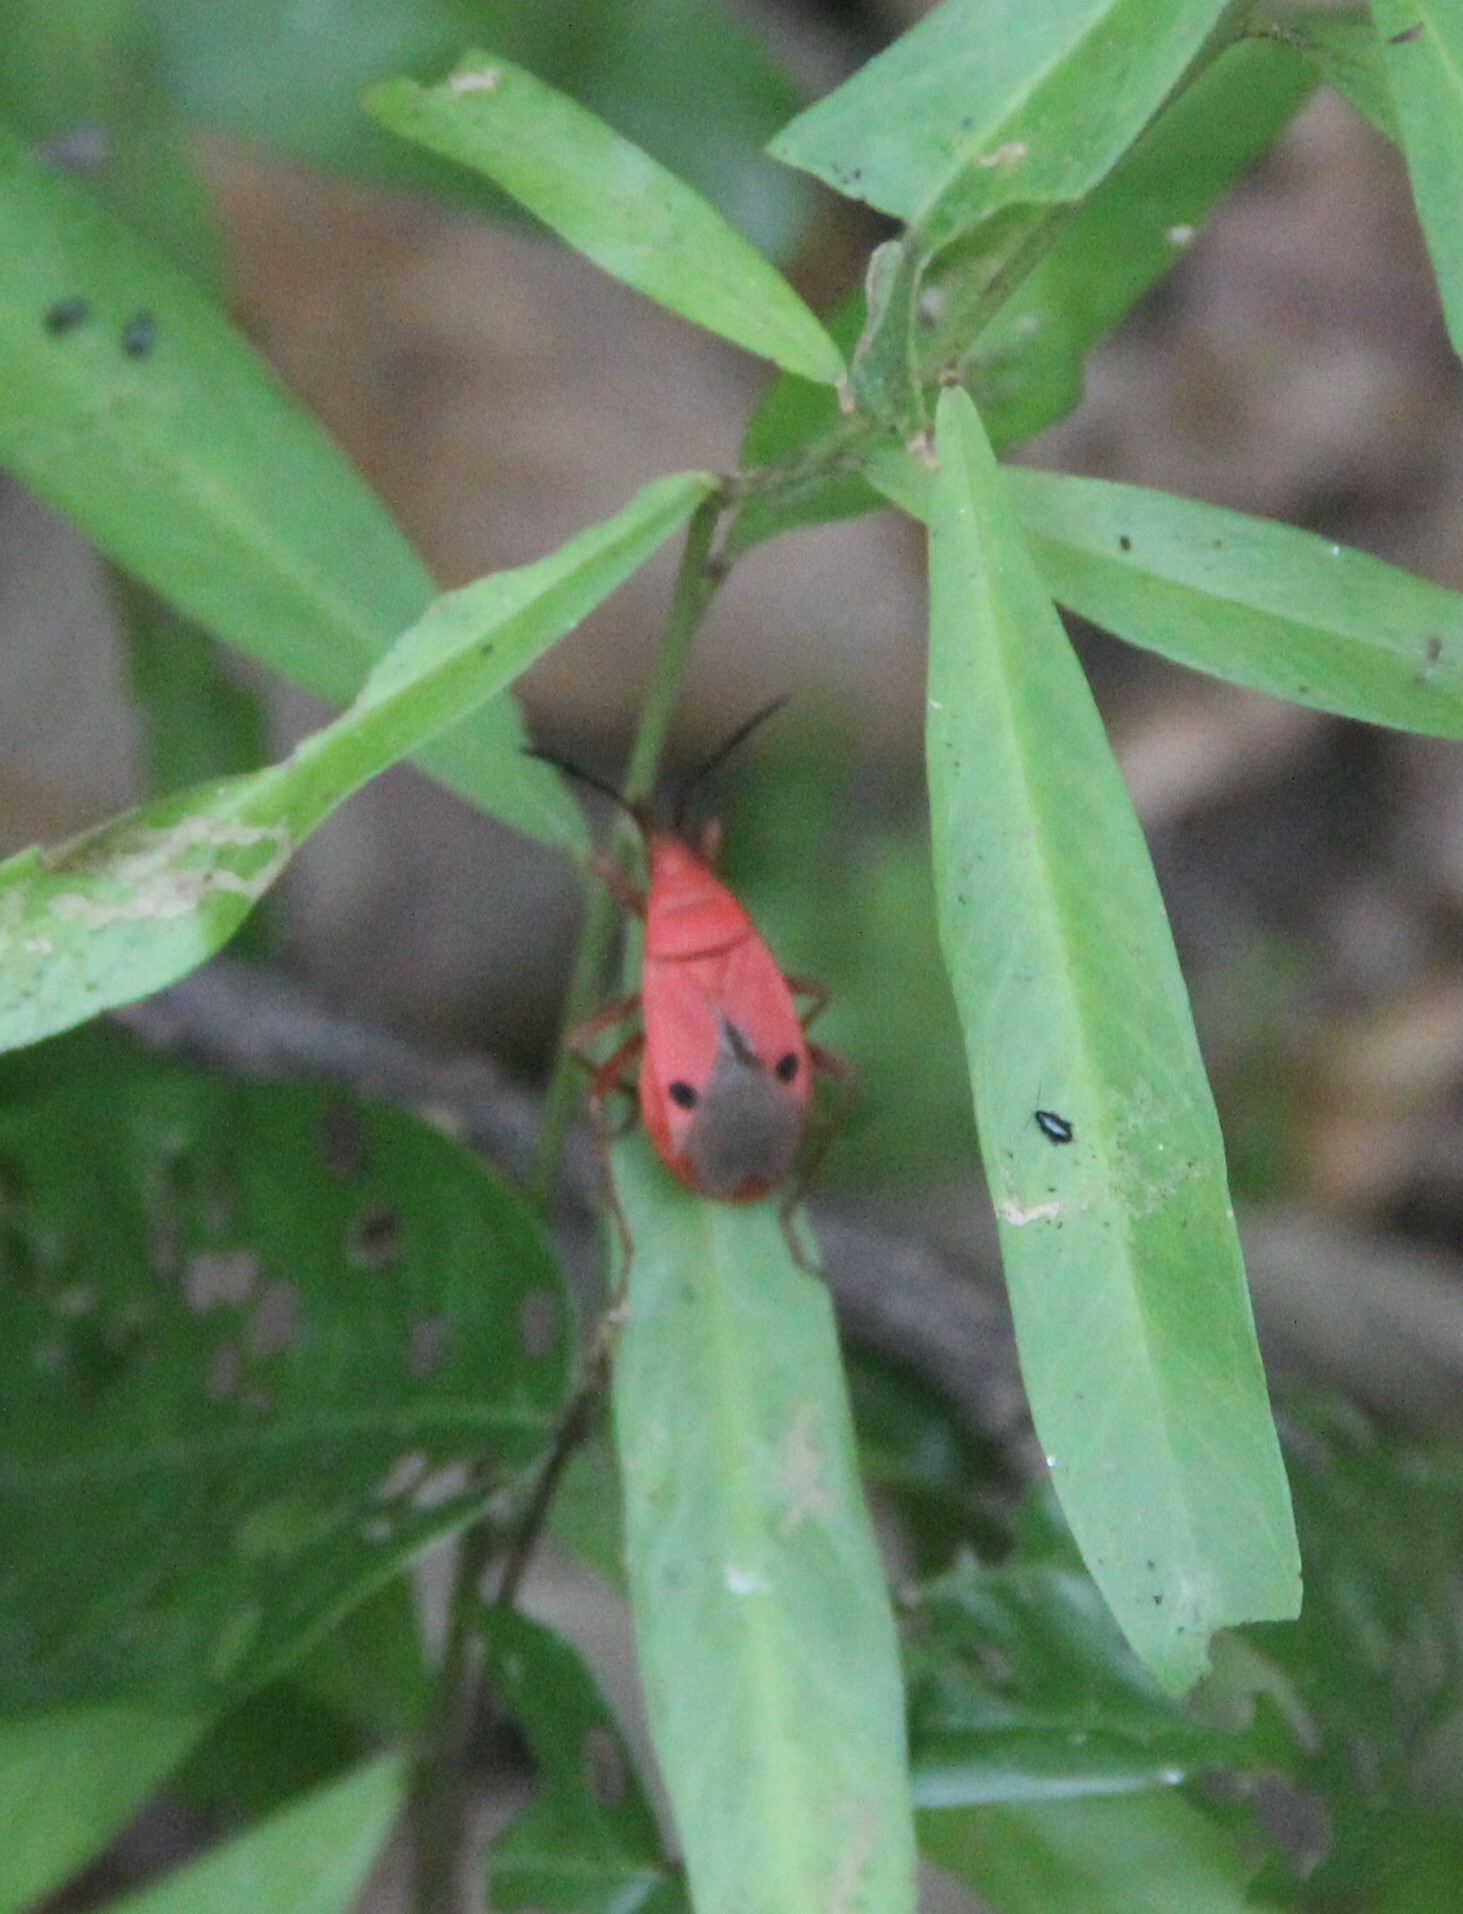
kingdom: Animalia
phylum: Arthropoda
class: Insecta
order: Hemiptera
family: Pyrrhocoridae
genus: Probergrothius
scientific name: Probergrothius nigricornis
